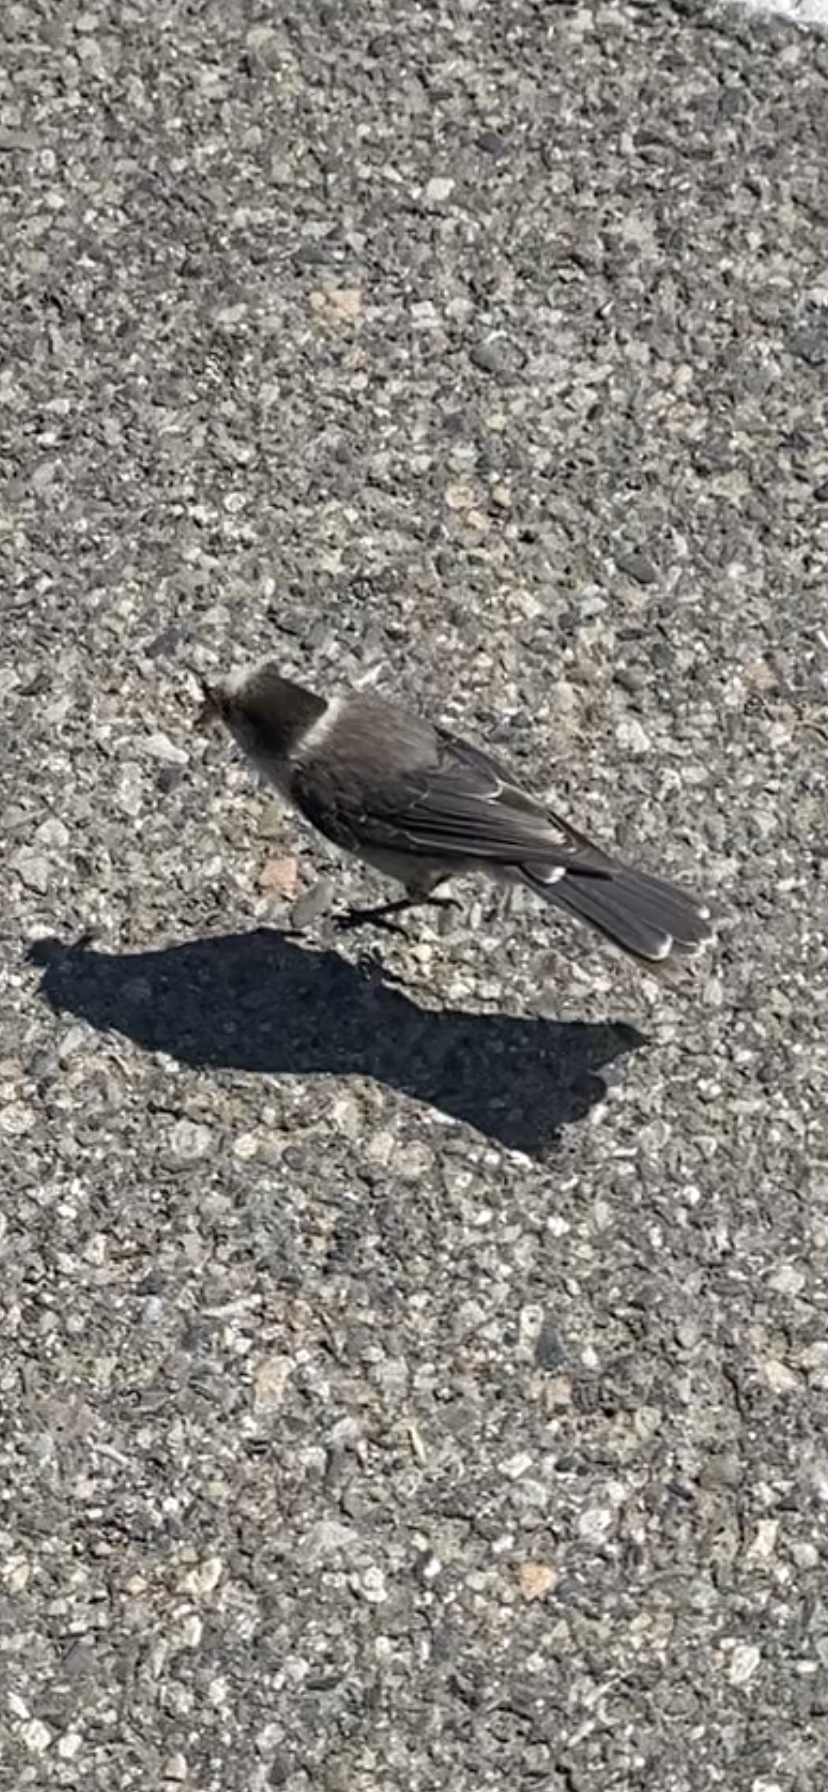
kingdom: Animalia
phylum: Chordata
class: Aves
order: Passeriformes
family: Corvidae
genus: Perisoreus
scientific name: Perisoreus canadensis
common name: Gray jay
